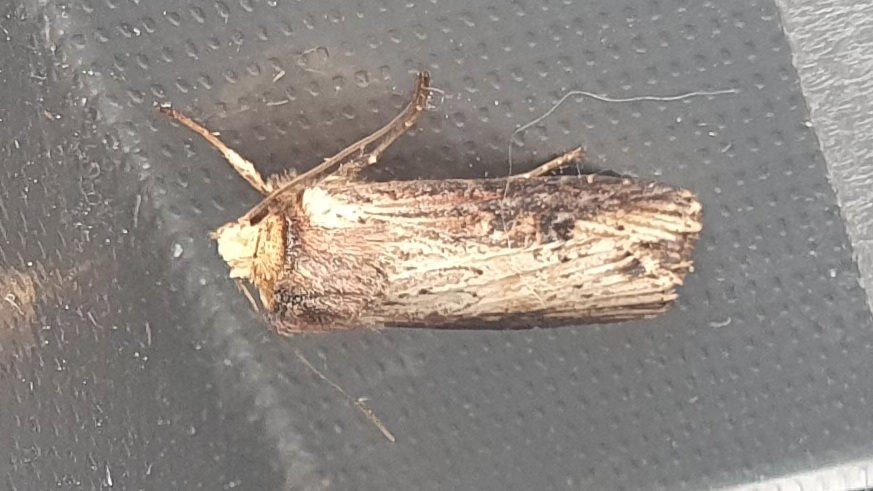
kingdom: Animalia
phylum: Arthropoda
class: Insecta
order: Lepidoptera
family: Noctuidae
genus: Axylia
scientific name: Axylia putris
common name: Flame
